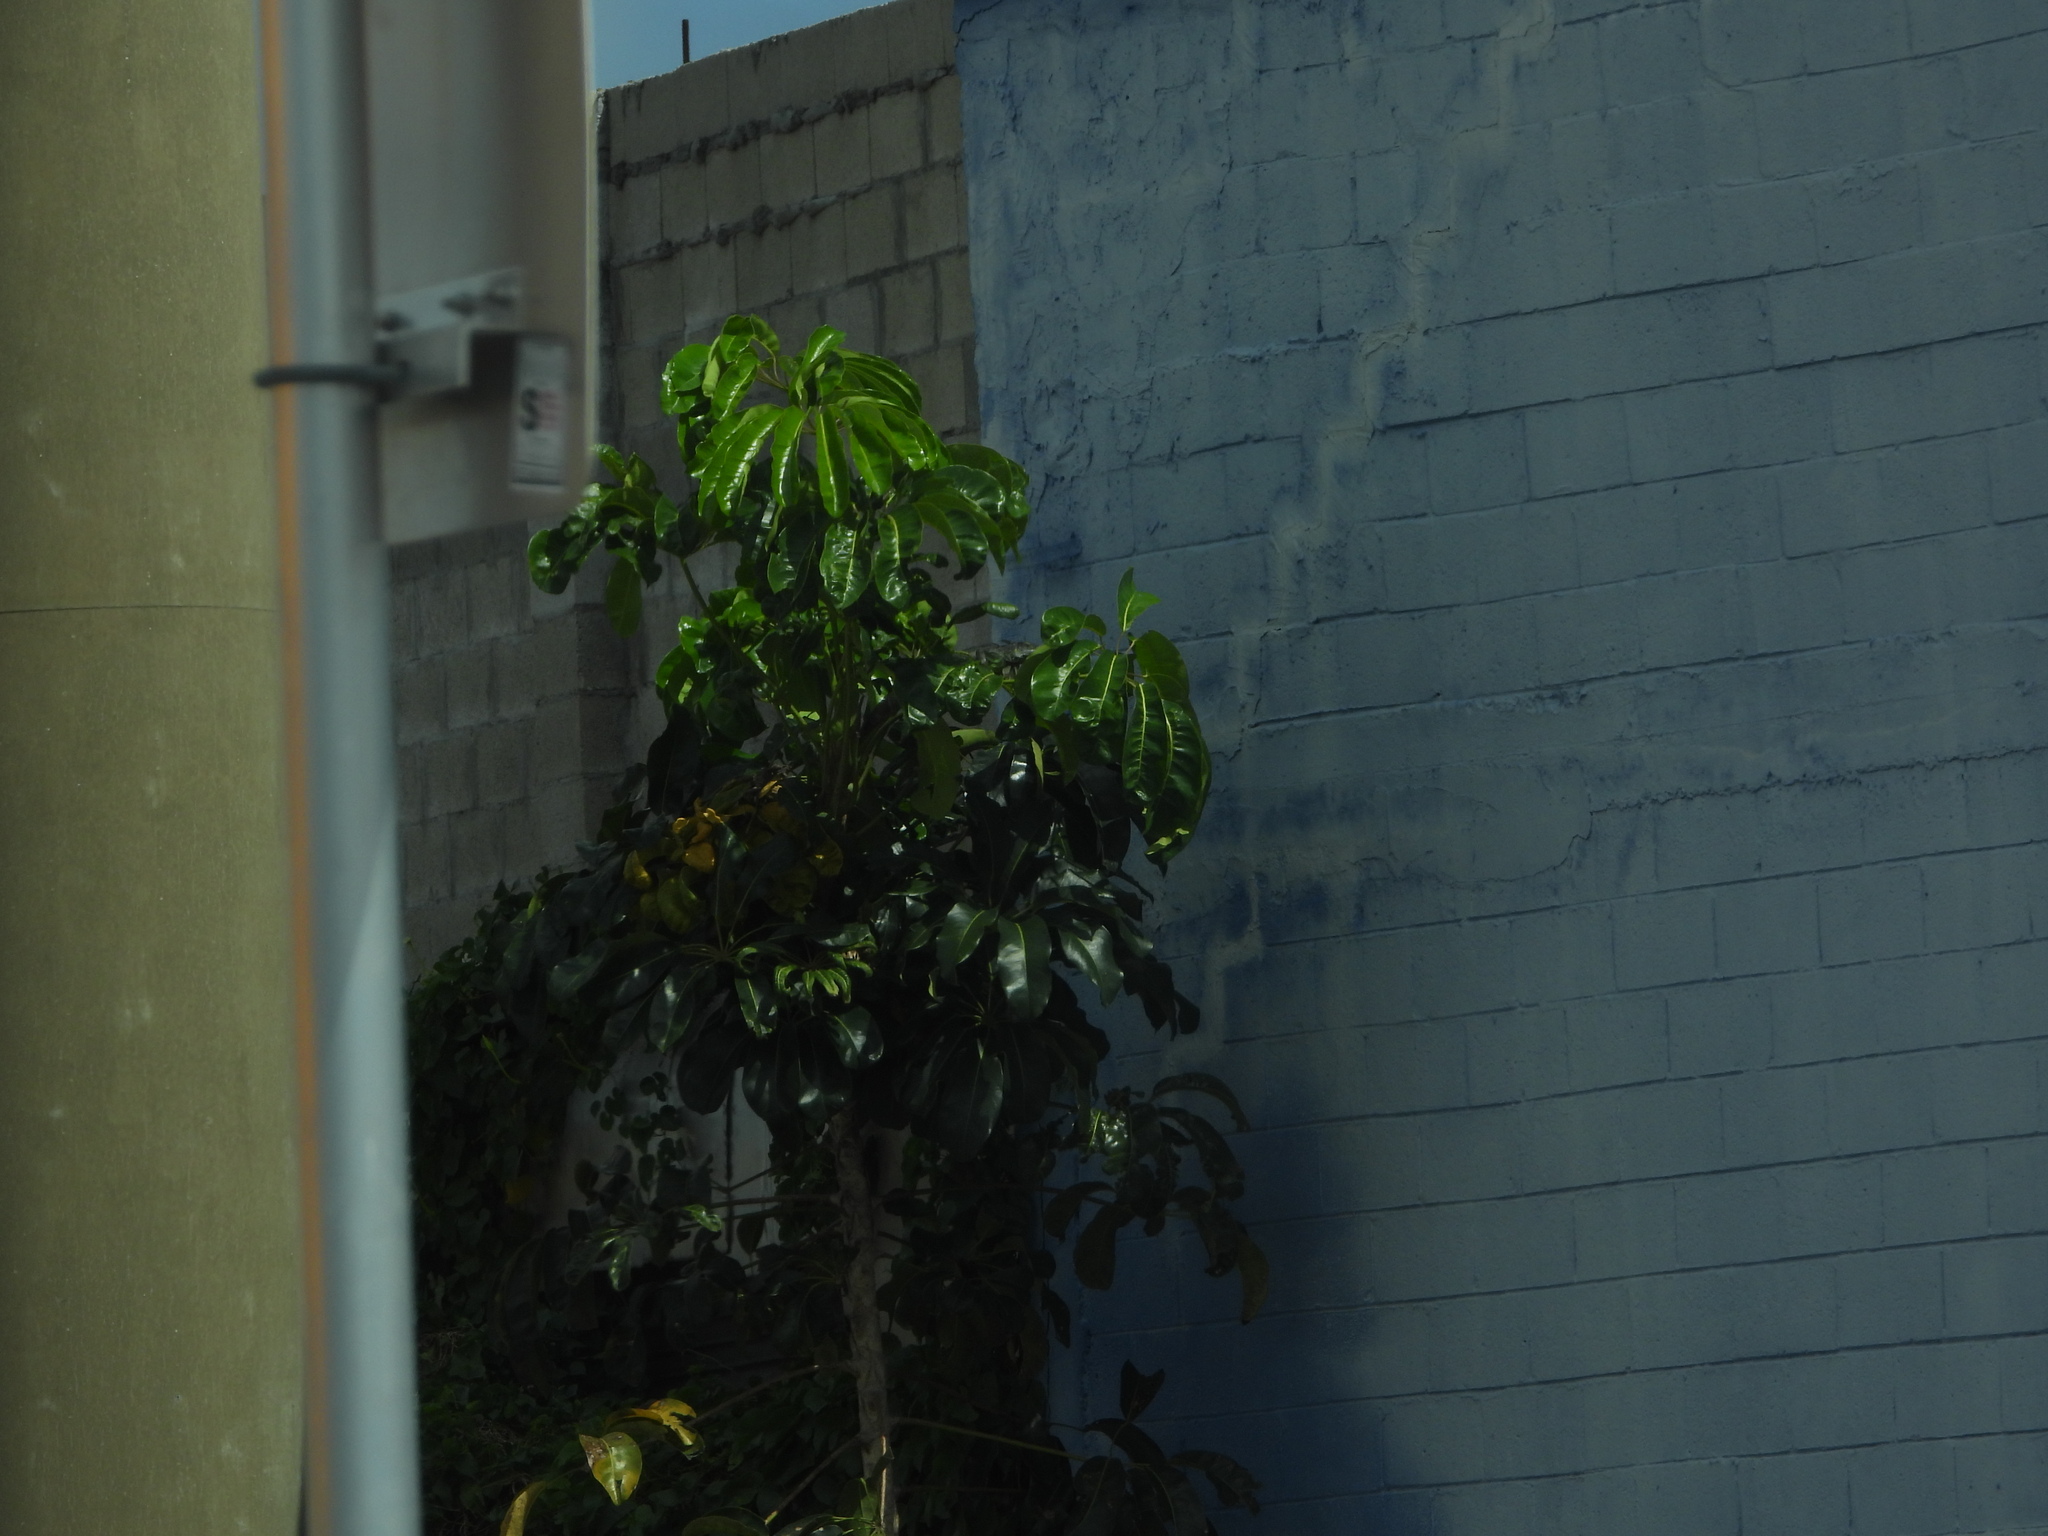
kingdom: Plantae
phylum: Tracheophyta
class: Magnoliopsida
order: Apiales
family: Araliaceae
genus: Heptapleurum
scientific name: Heptapleurum actinophyllum
